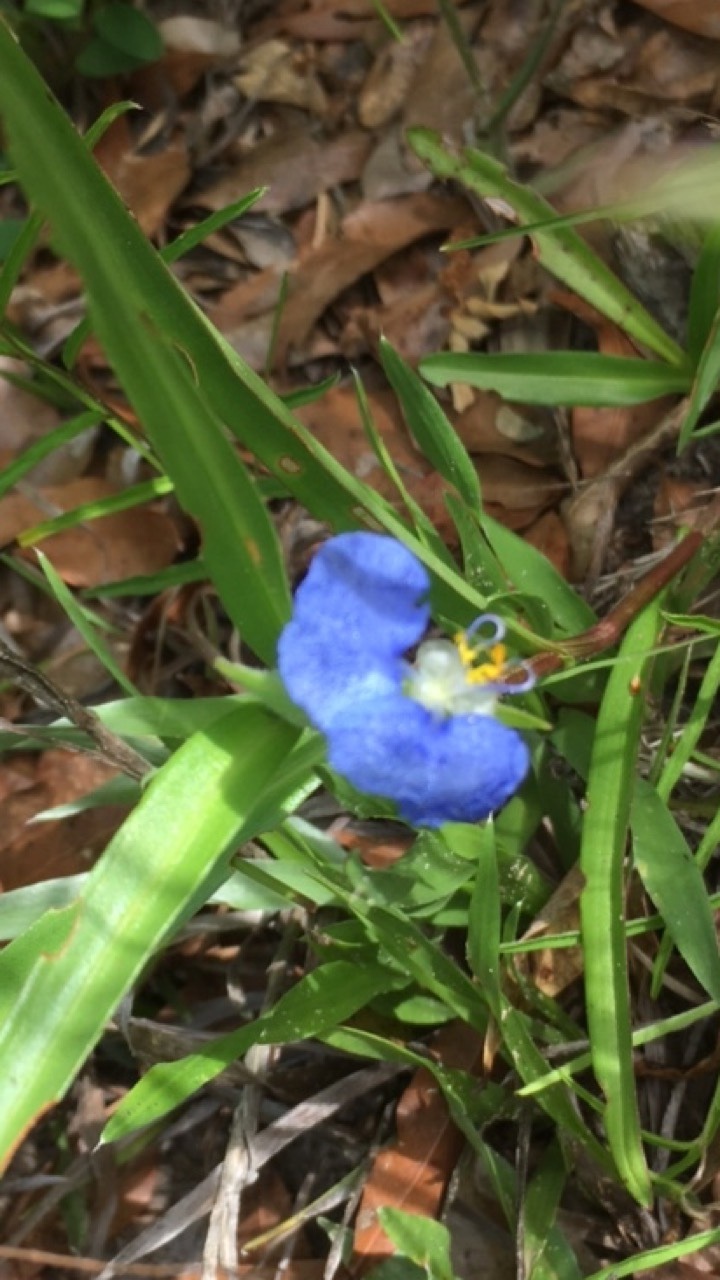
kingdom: Plantae
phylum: Tracheophyta
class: Liliopsida
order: Commelinales
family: Commelinaceae
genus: Commelina
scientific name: Commelina communis
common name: Asiatic dayflower
